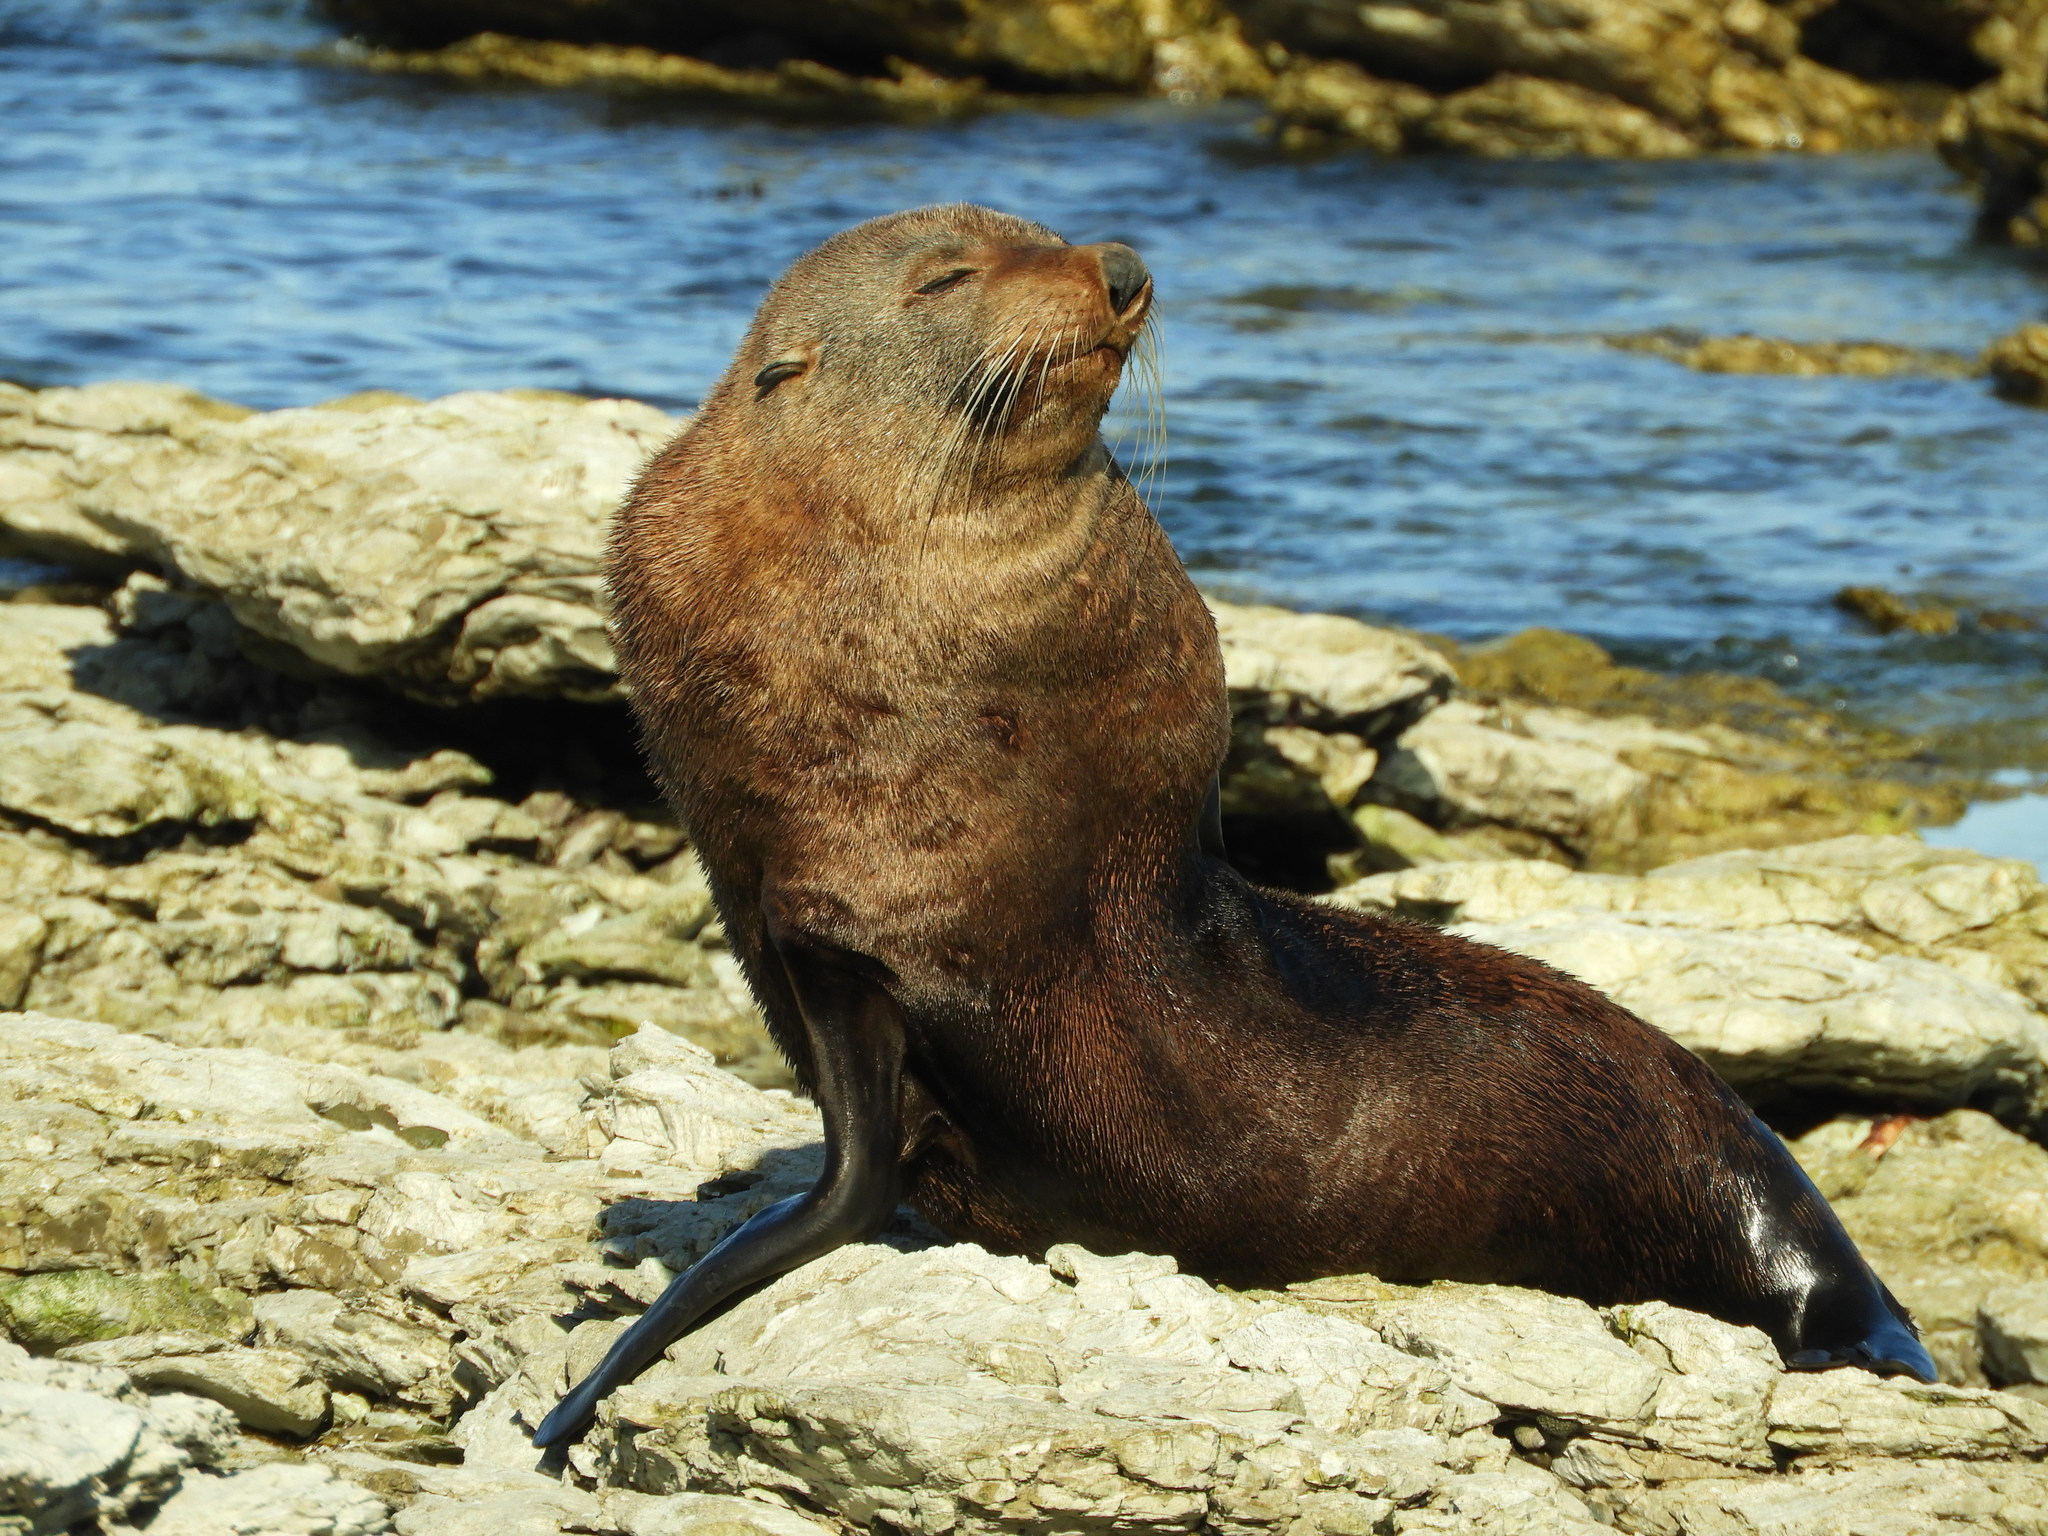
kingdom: Animalia
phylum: Chordata
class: Mammalia
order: Carnivora
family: Otariidae
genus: Arctocephalus
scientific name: Arctocephalus forsteri
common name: New zealand fur seal
